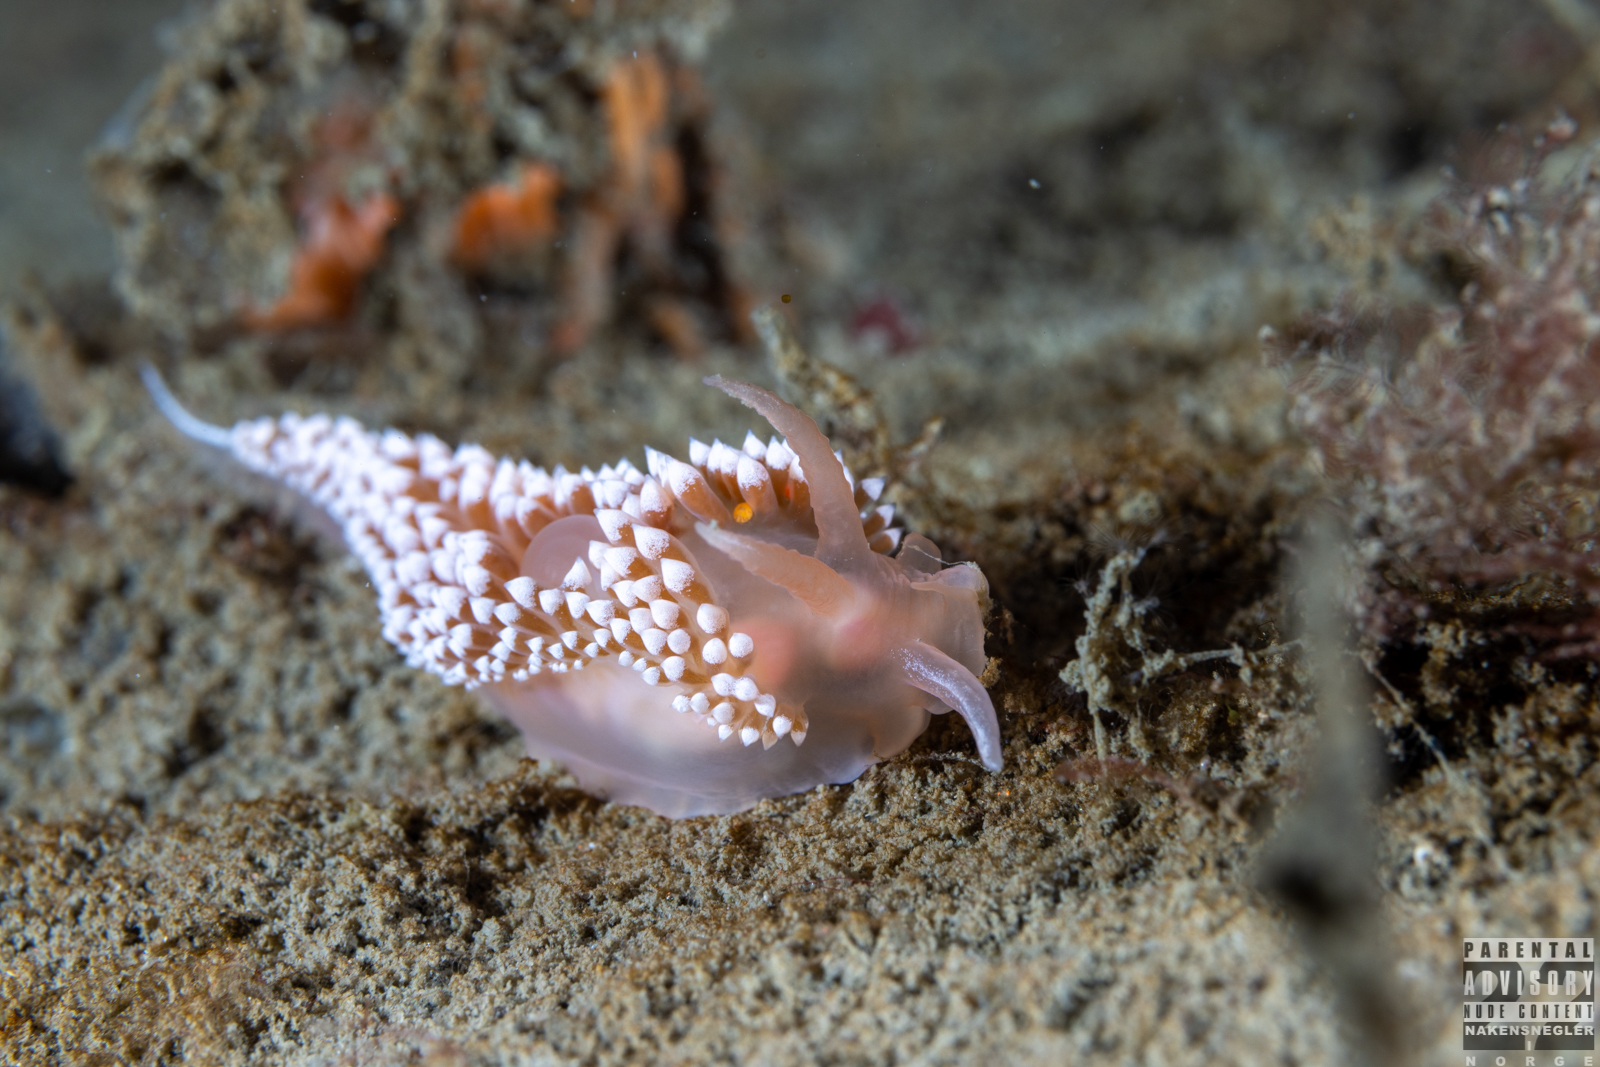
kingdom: Animalia
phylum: Mollusca
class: Gastropoda
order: Nudibranchia
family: Coryphellidae
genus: Coryphella
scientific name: Coryphella verrucosa
